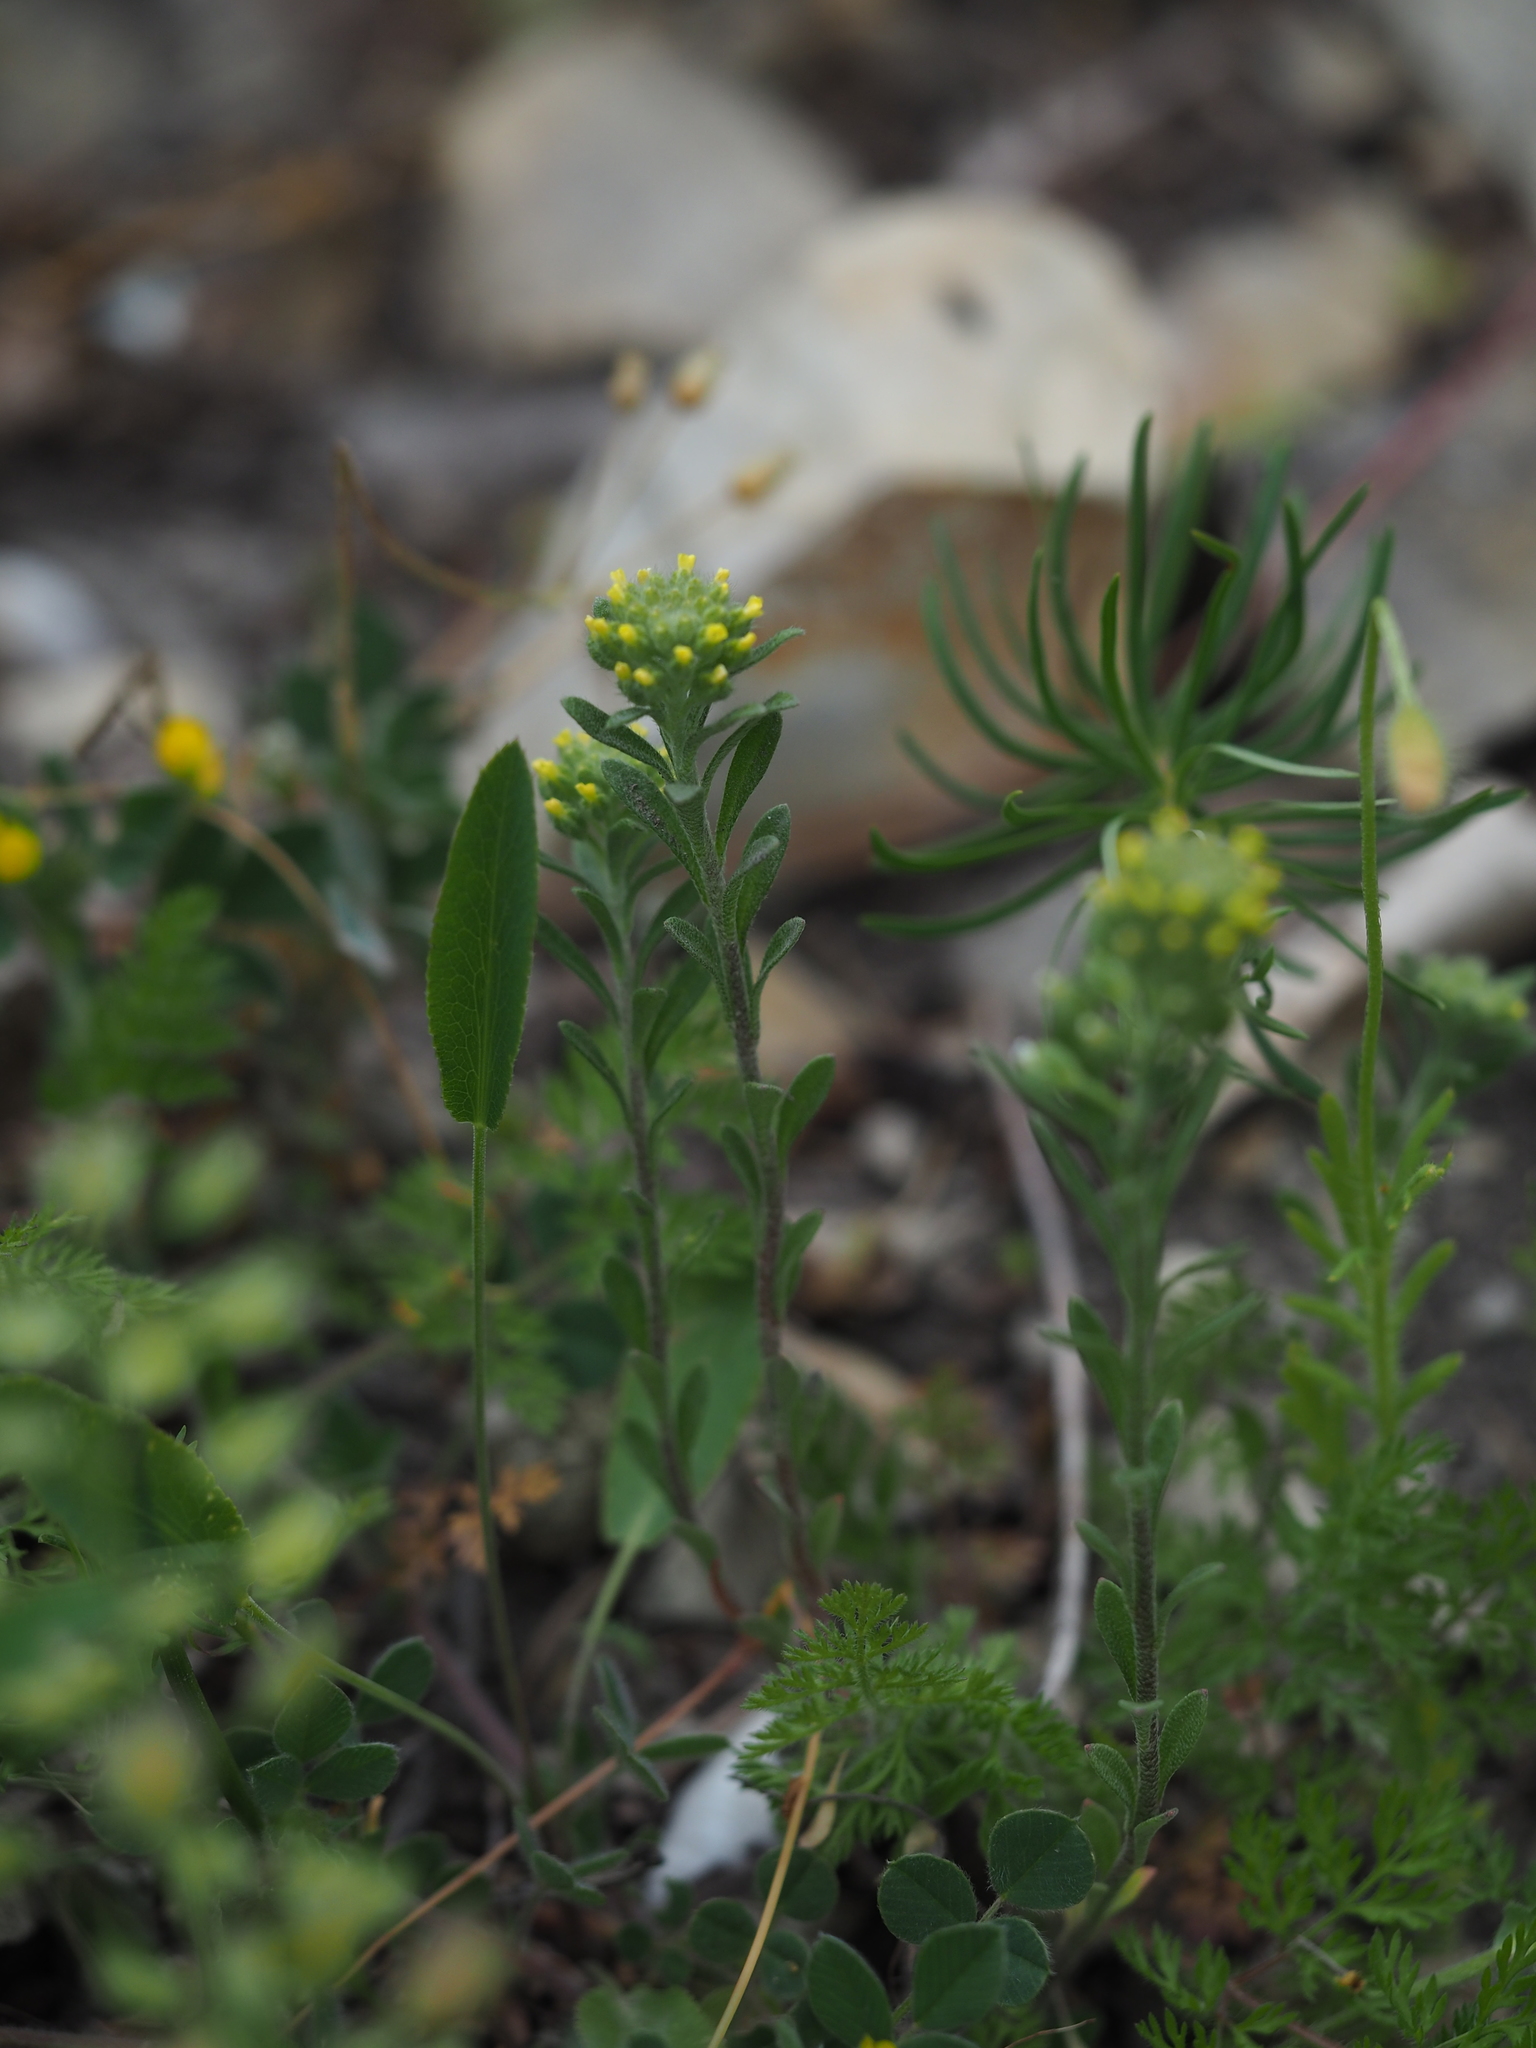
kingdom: Plantae
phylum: Tracheophyta
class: Magnoliopsida
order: Brassicales
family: Brassicaceae
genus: Alyssum
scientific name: Alyssum alyssoides
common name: Small alison
